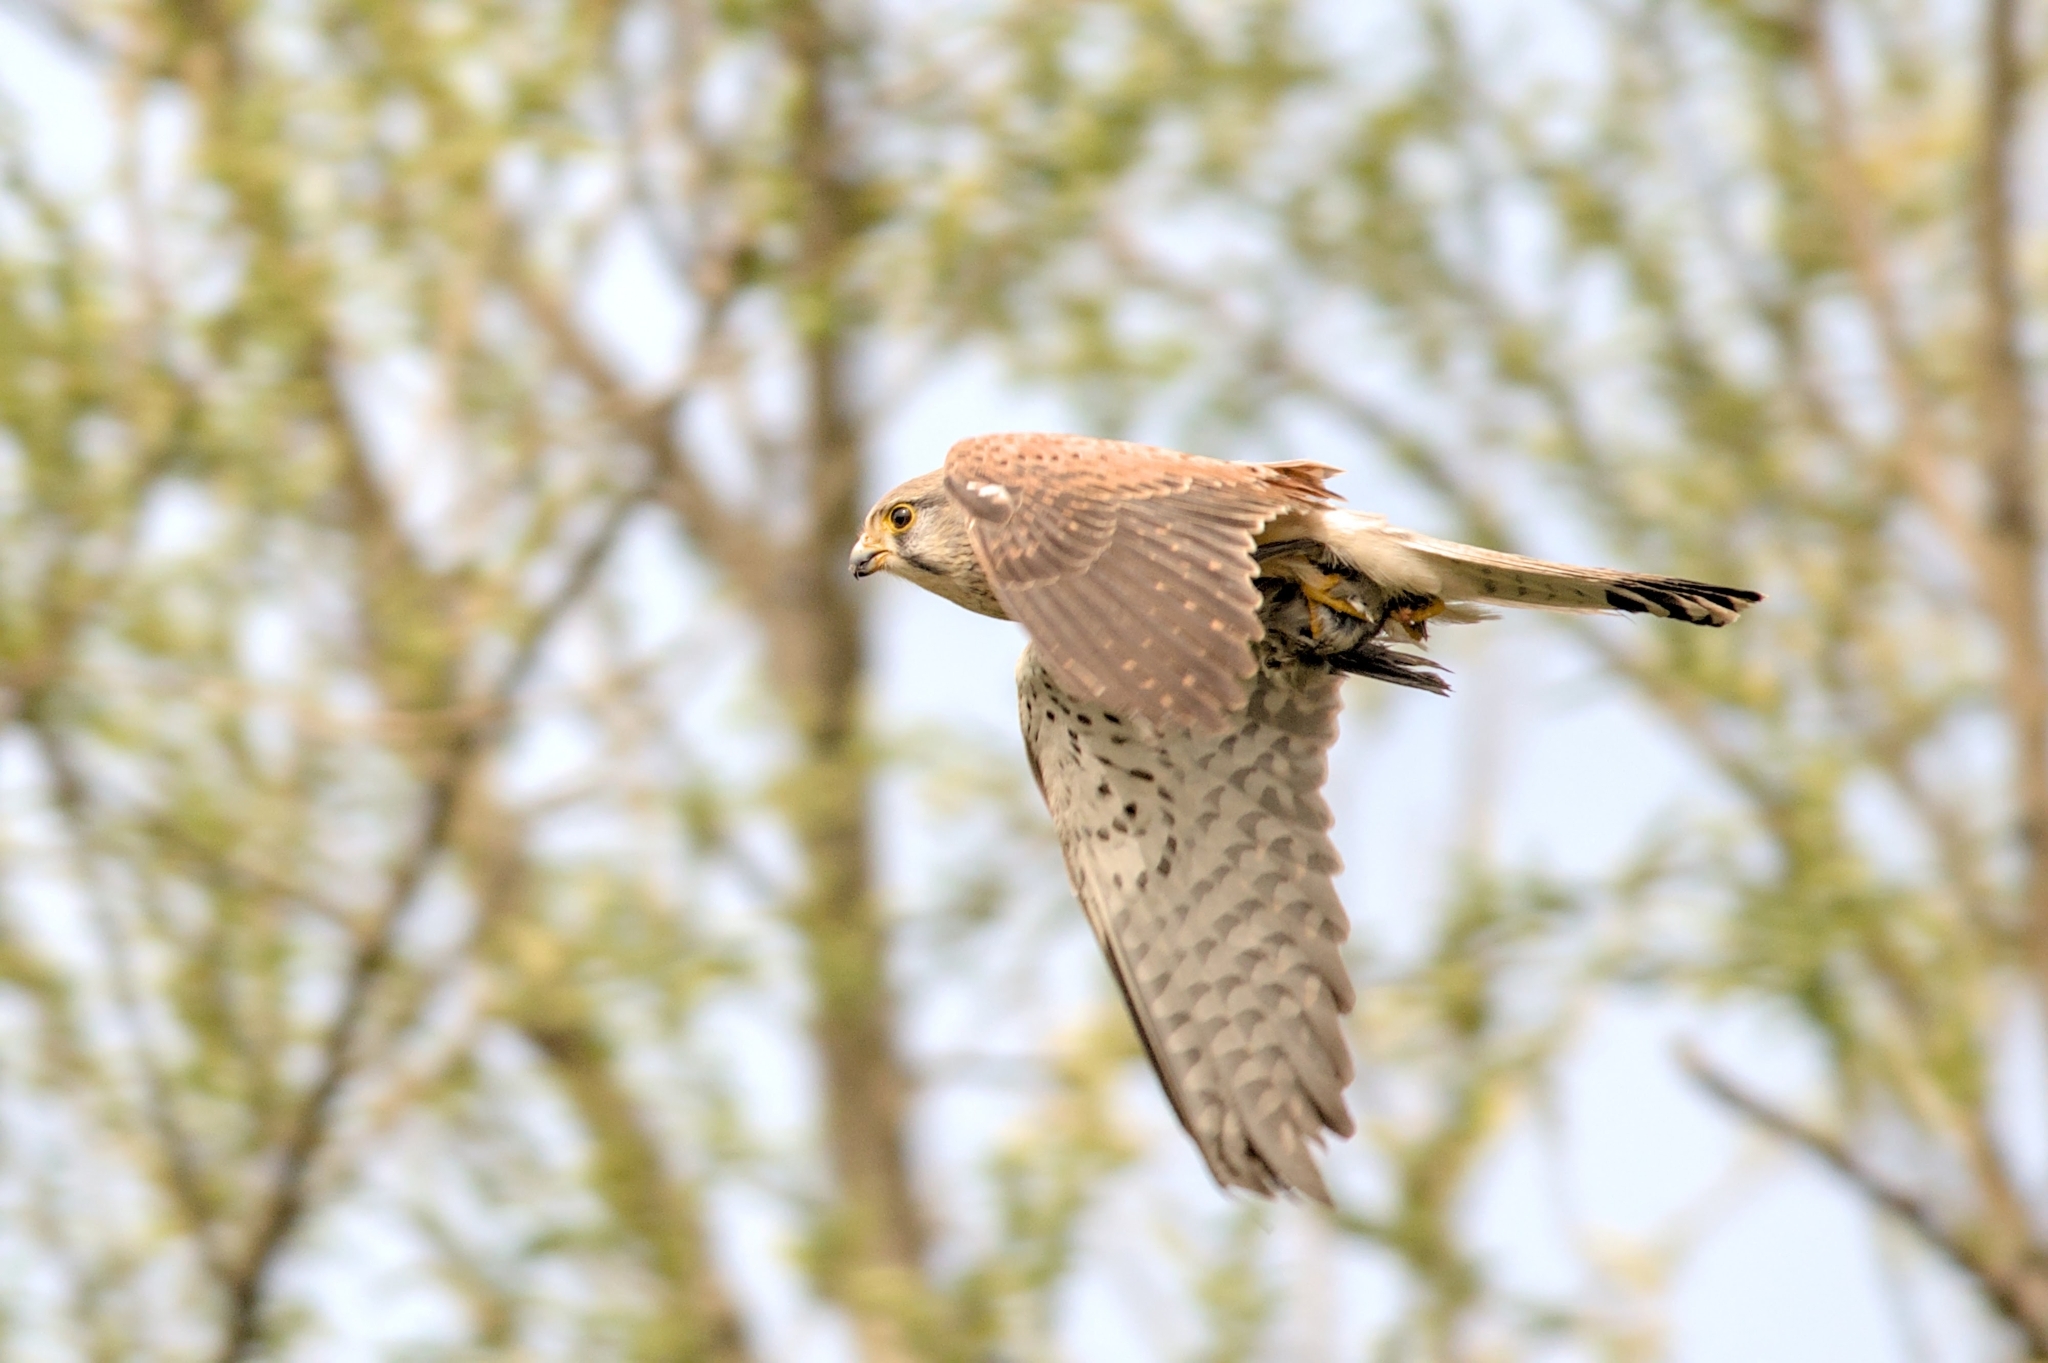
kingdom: Animalia
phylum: Chordata
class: Aves
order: Falconiformes
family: Falconidae
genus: Falco
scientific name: Falco tinnunculus
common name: Common kestrel
